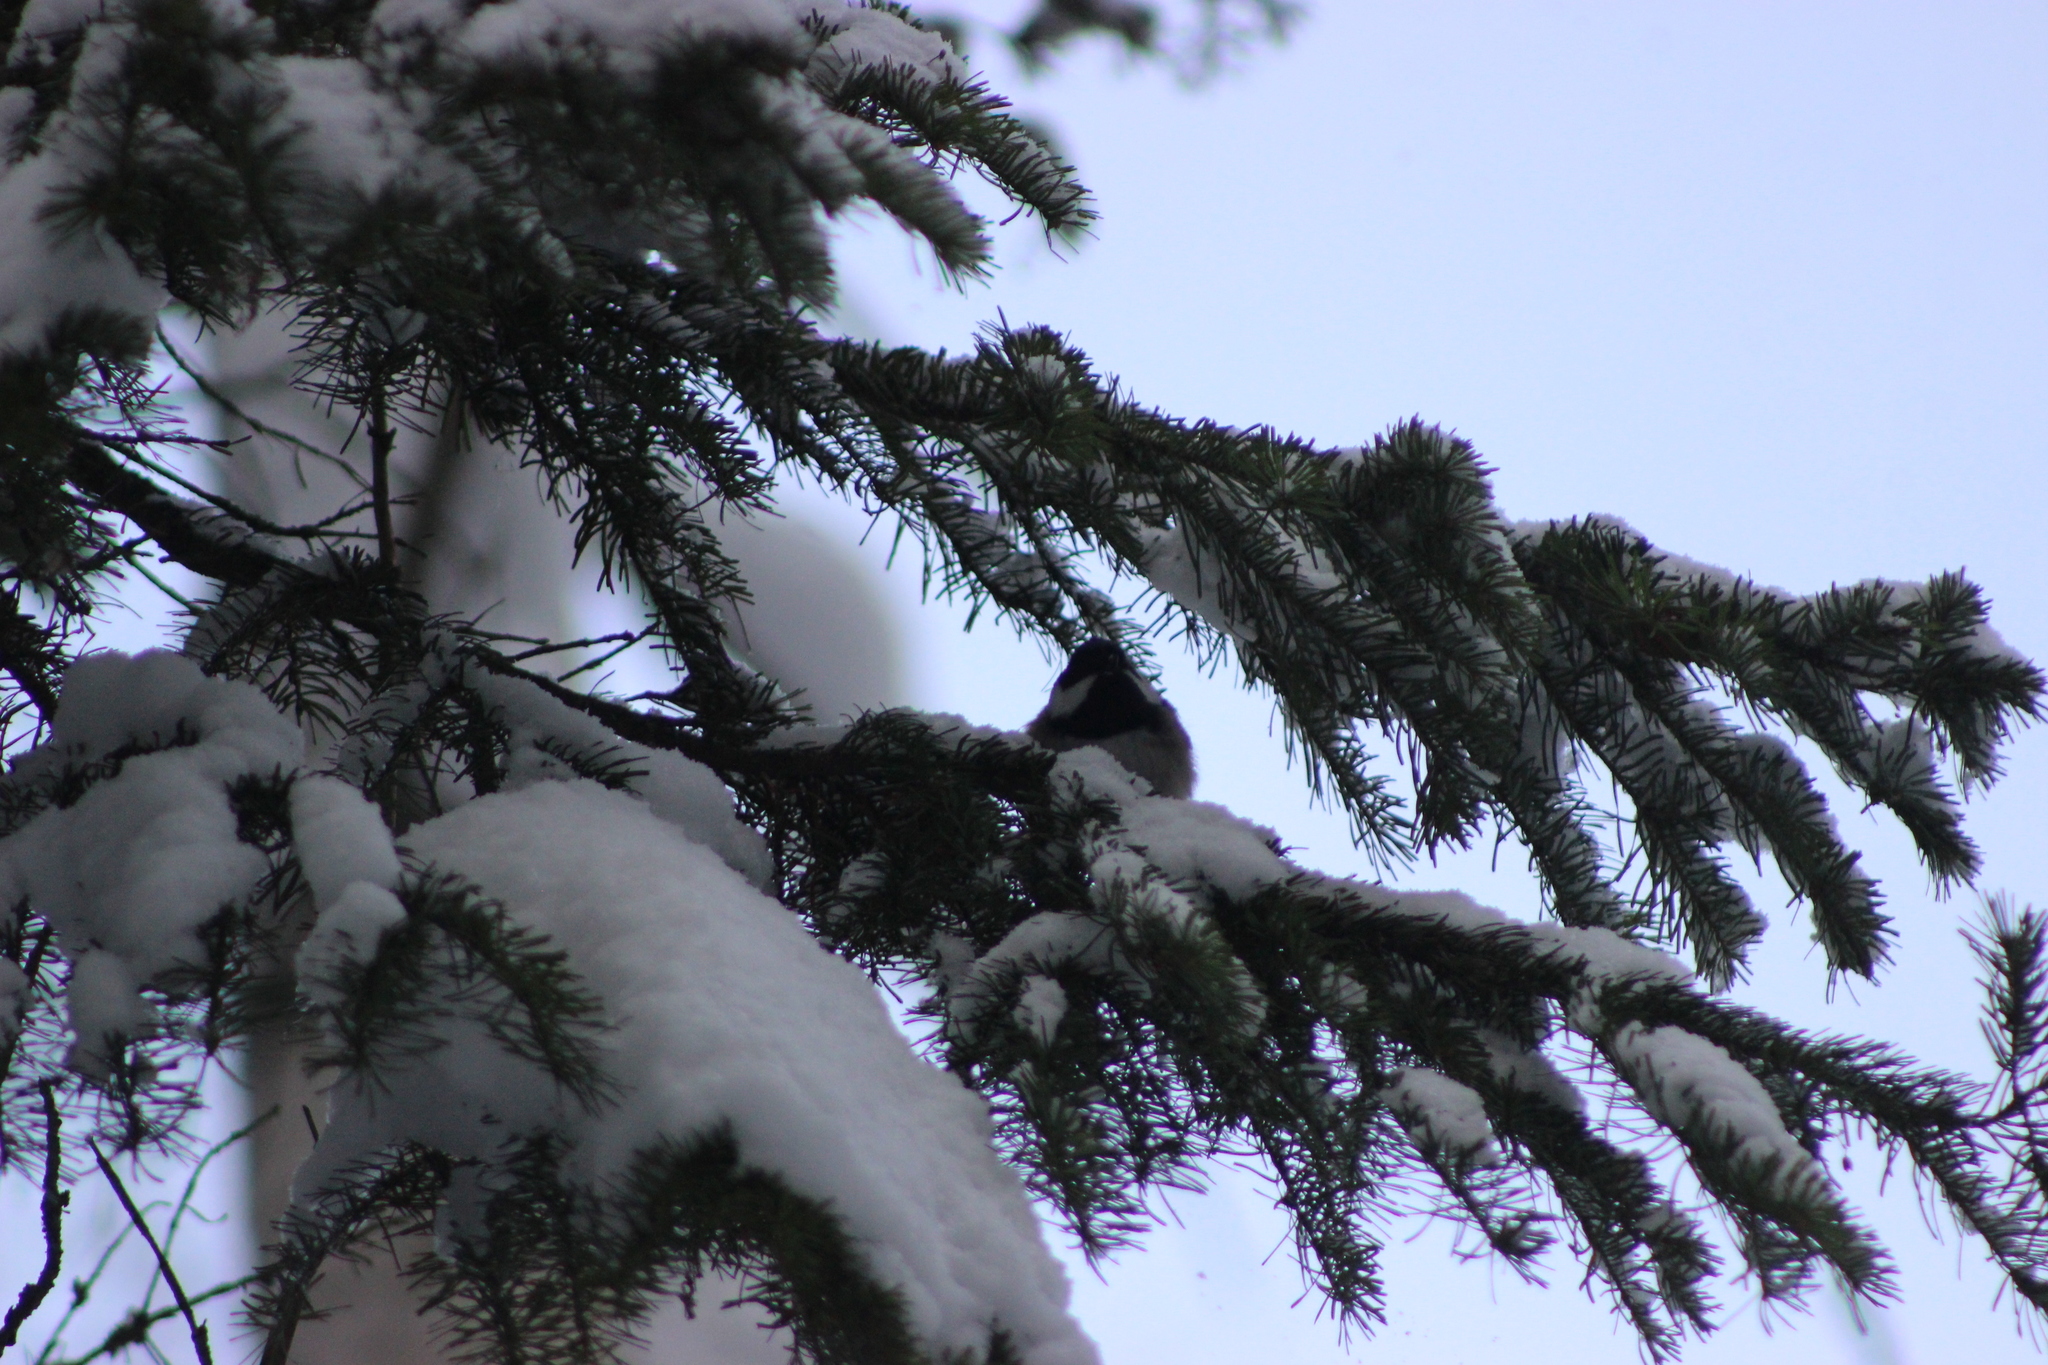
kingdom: Animalia
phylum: Chordata
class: Aves
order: Passeriformes
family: Paridae
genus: Periparus
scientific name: Periparus ater
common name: Coal tit
